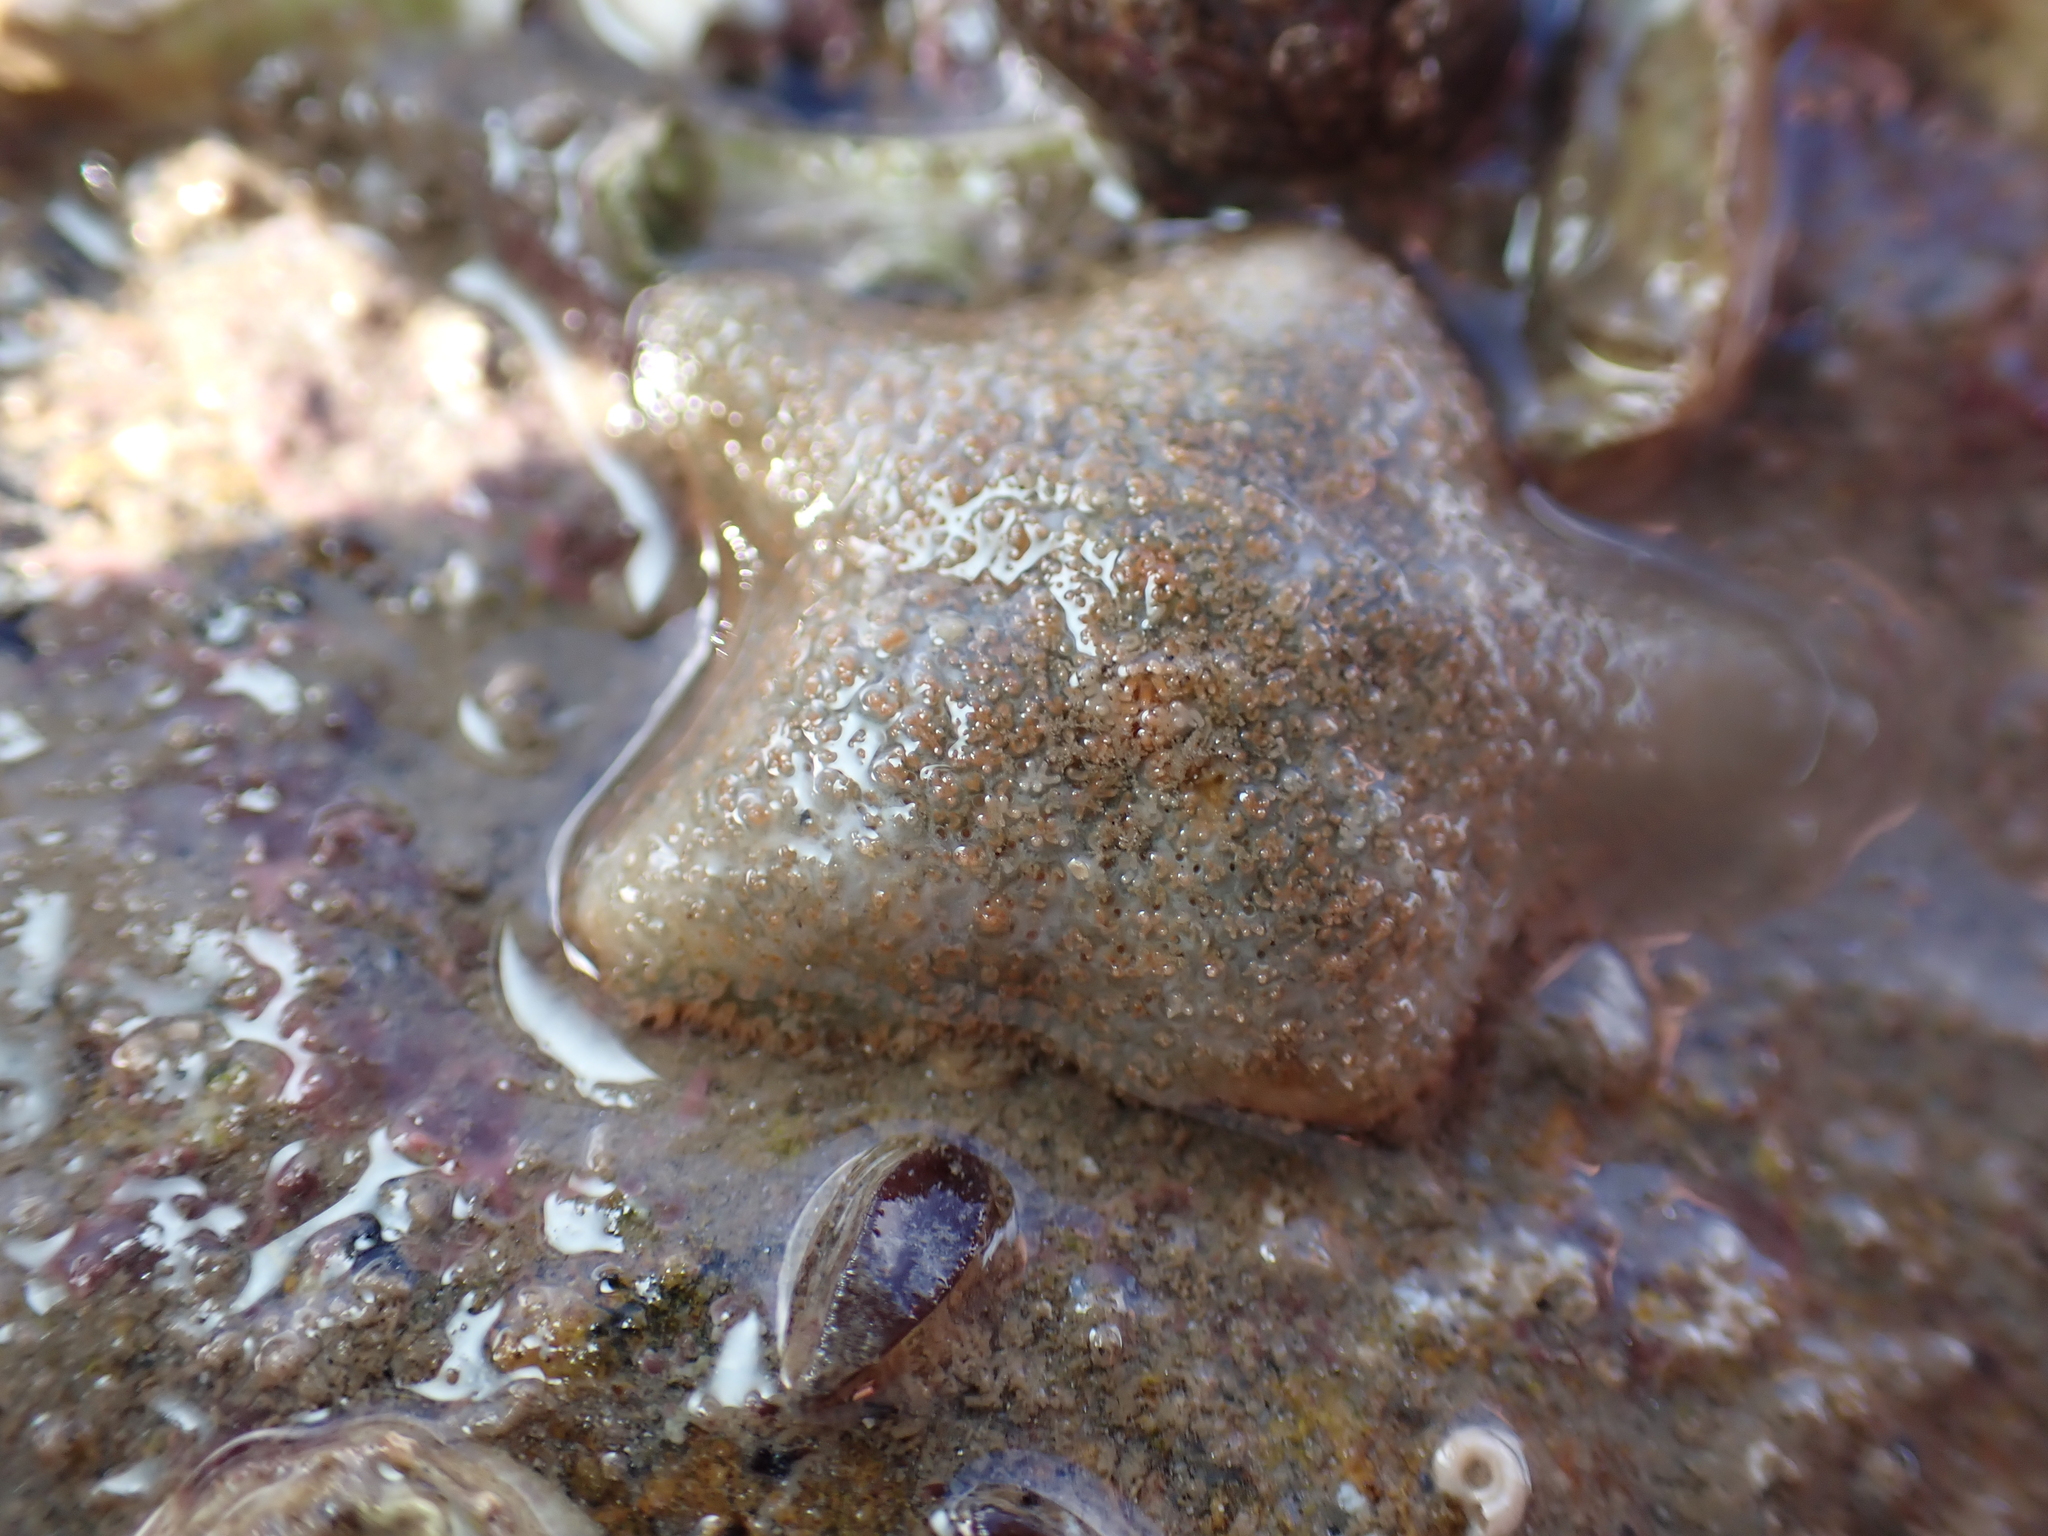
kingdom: Animalia
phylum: Echinodermata
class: Asteroidea
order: Valvatida
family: Asterinidae
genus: Asterina
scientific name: Asterina gibbosa
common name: Cushion star
